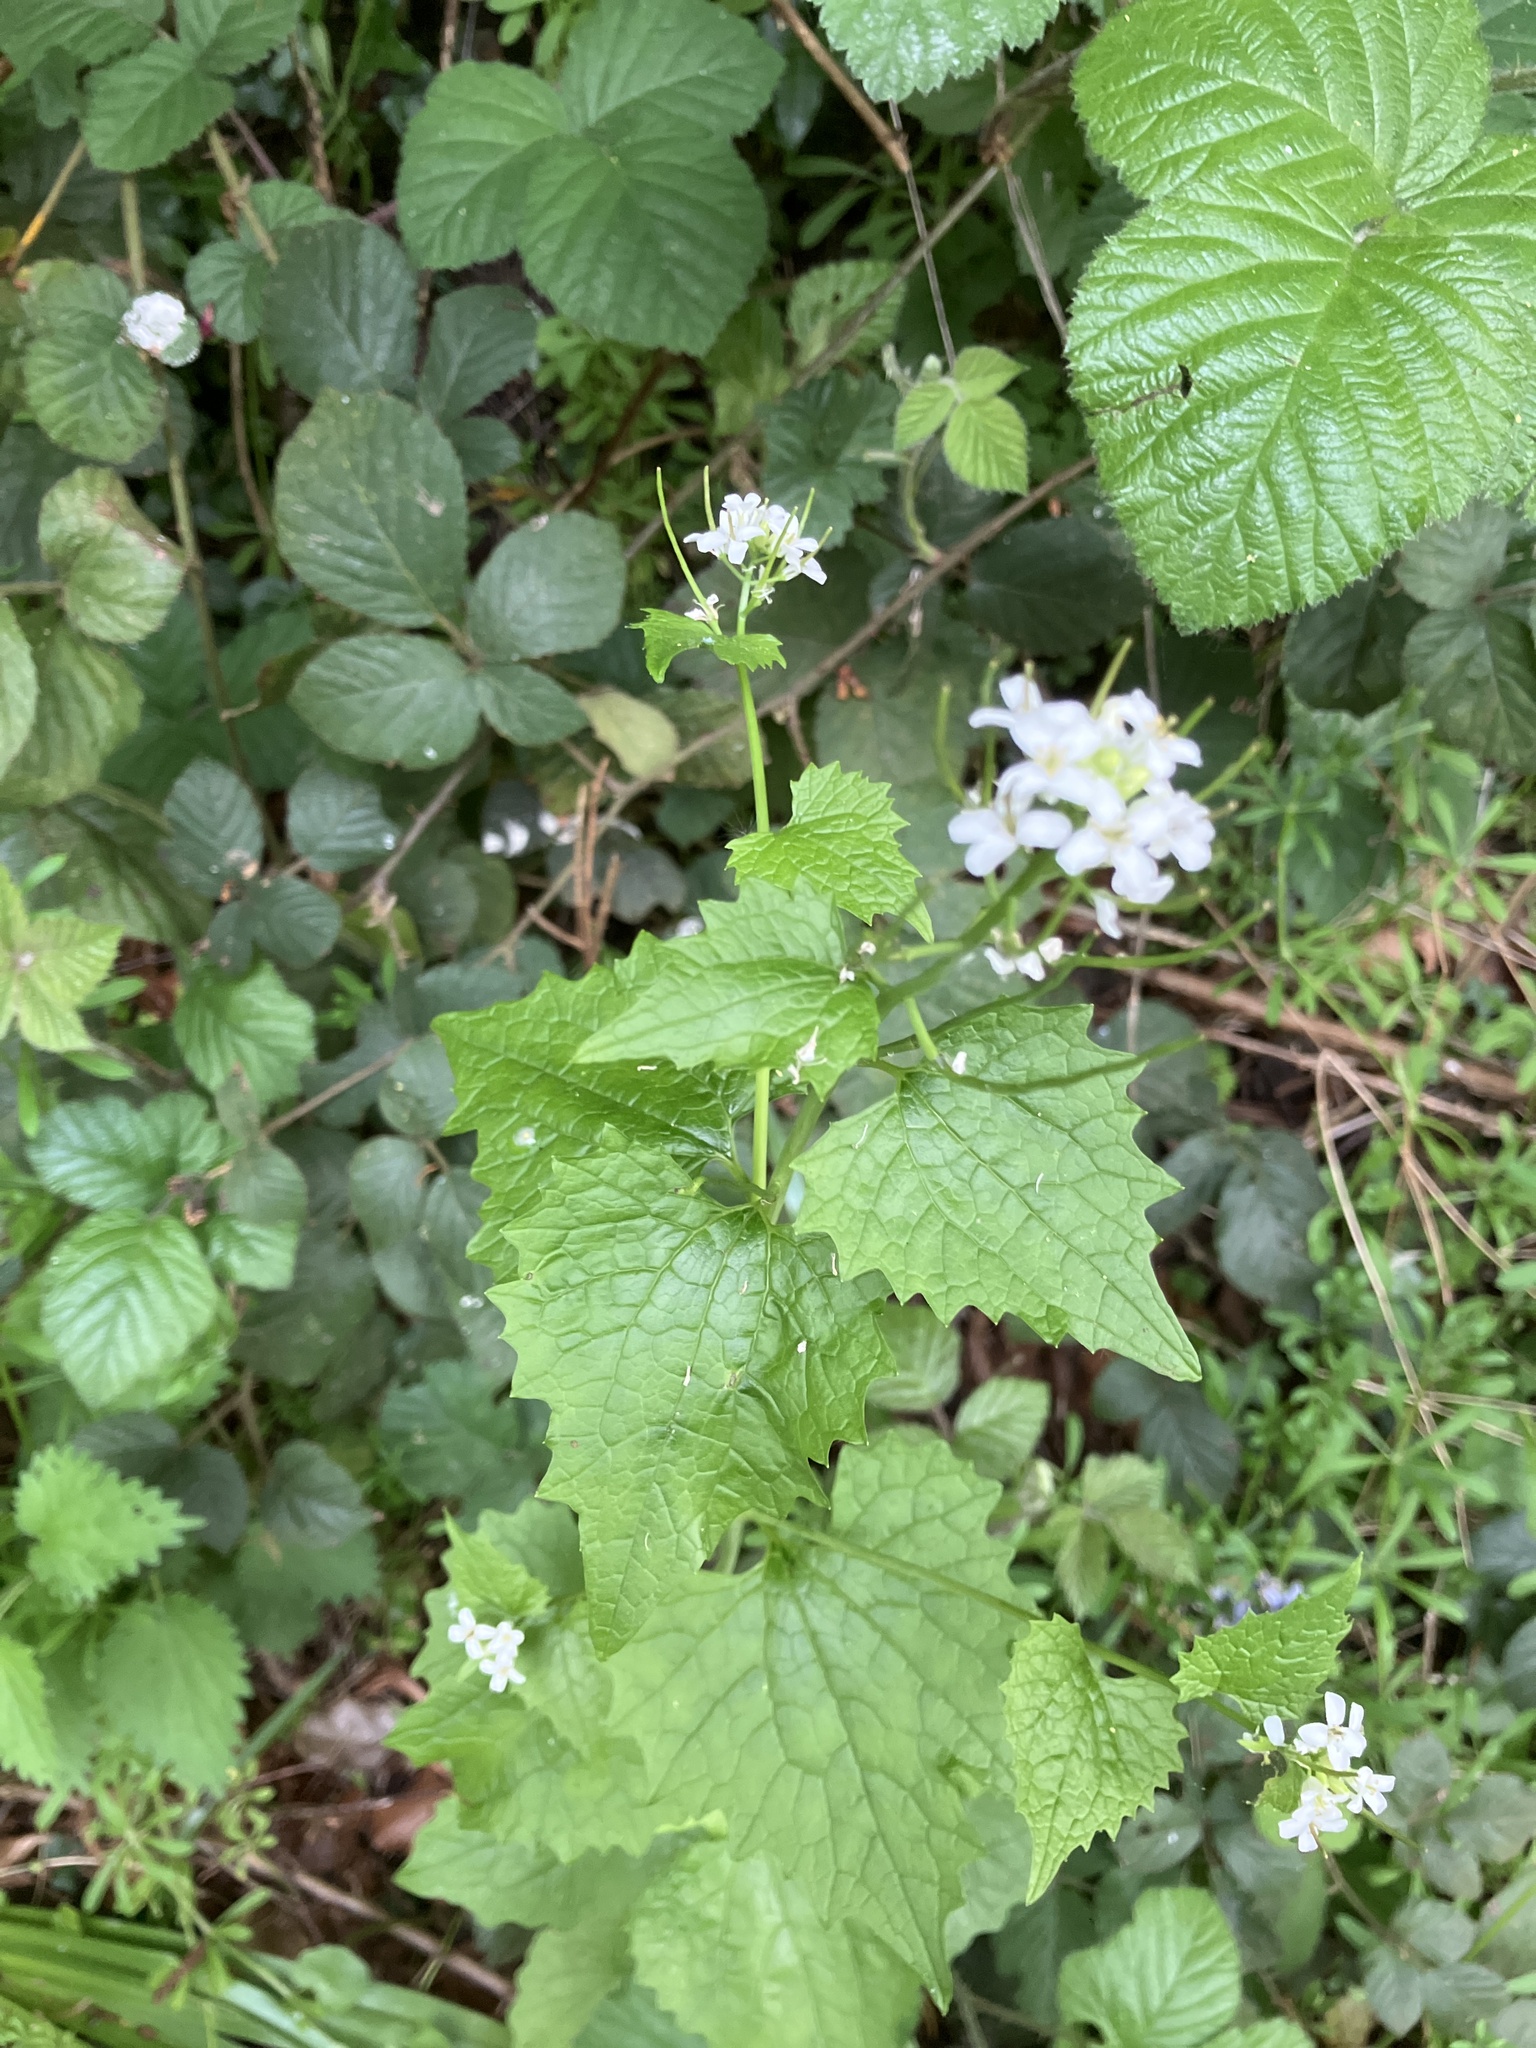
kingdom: Plantae
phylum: Tracheophyta
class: Magnoliopsida
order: Brassicales
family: Brassicaceae
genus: Alliaria
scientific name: Alliaria petiolata
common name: Garlic mustard
